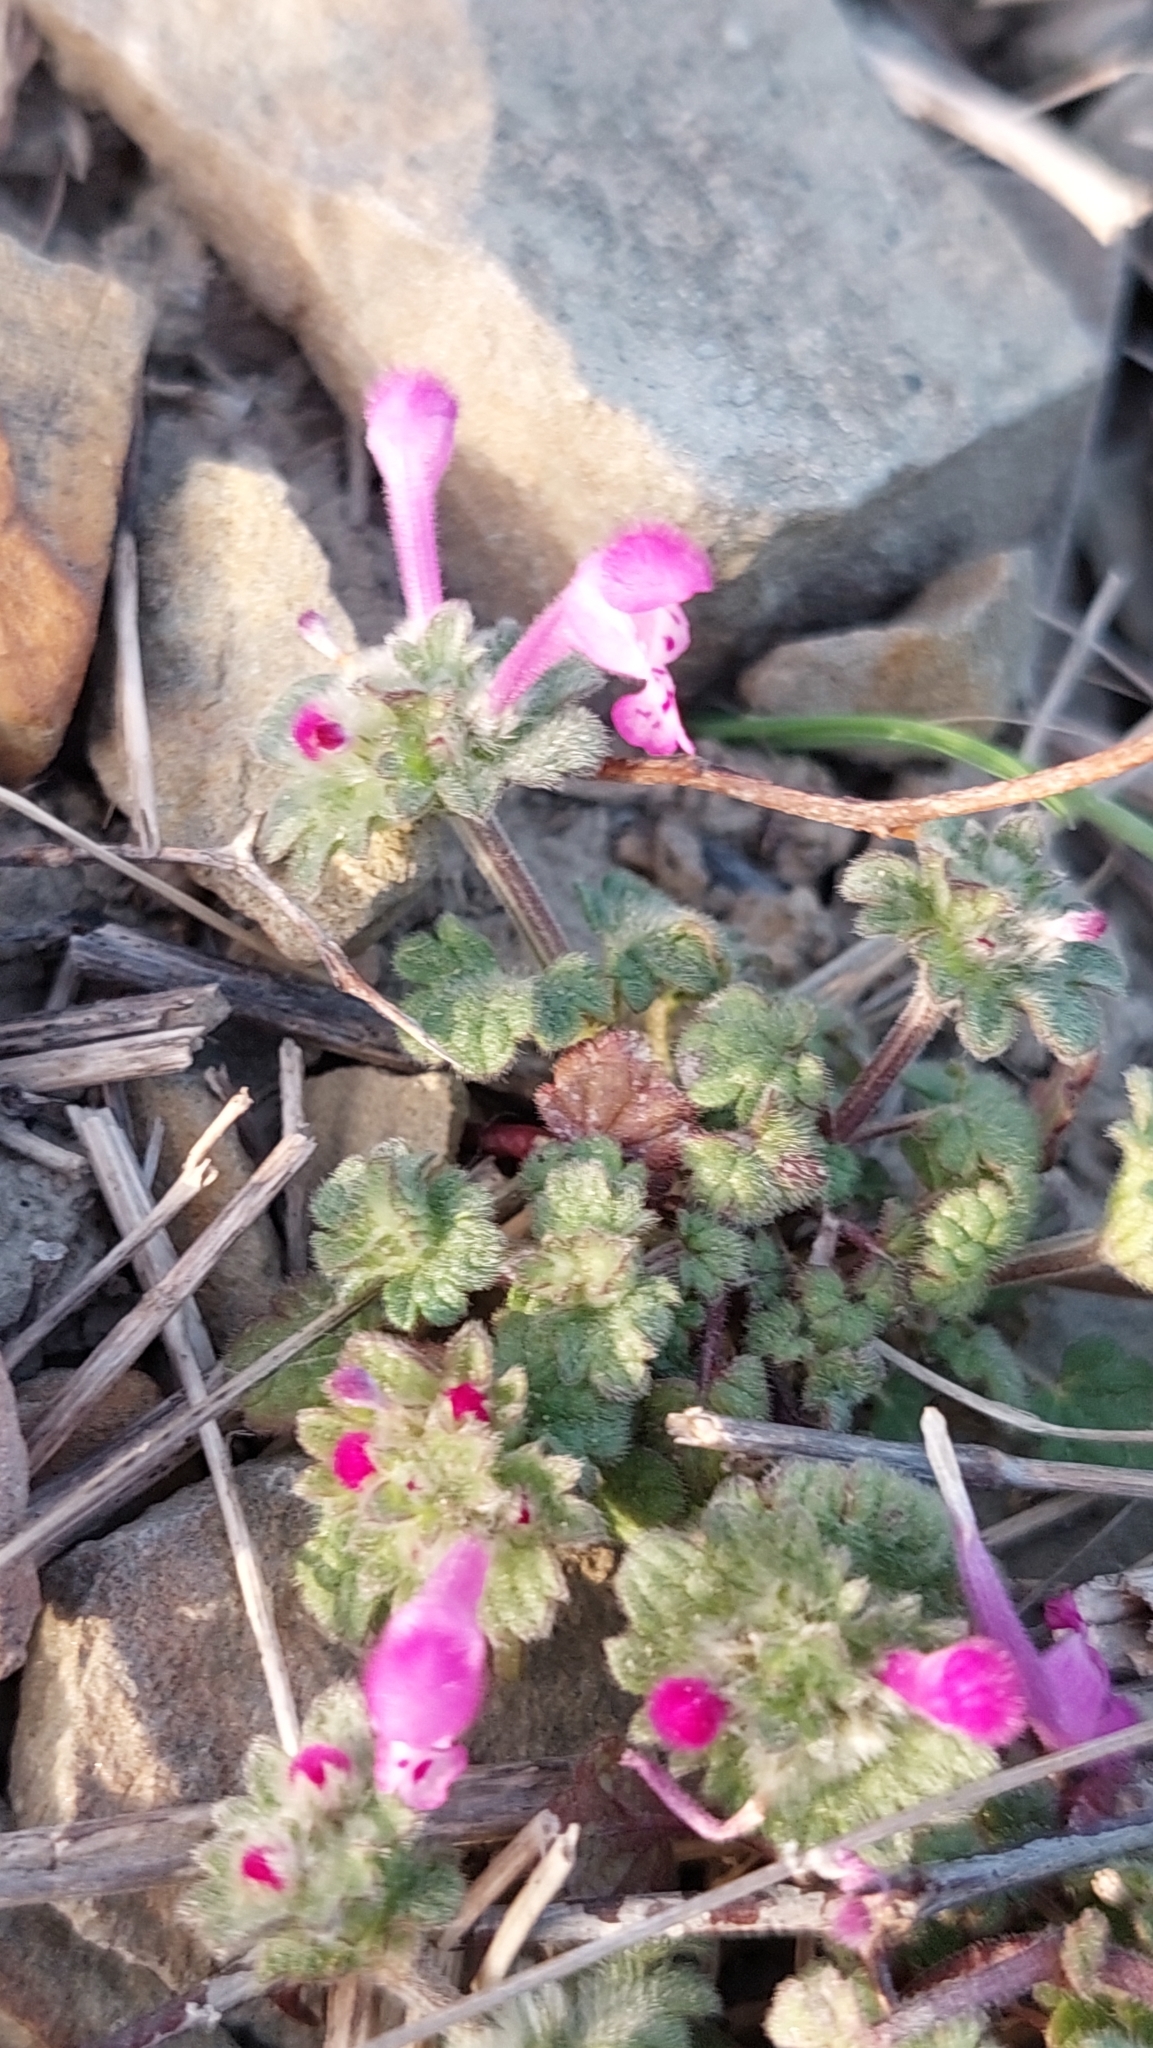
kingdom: Plantae
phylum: Tracheophyta
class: Magnoliopsida
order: Lamiales
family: Lamiaceae
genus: Lamium
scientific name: Lamium amplexicaule
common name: Henbit dead-nettle
